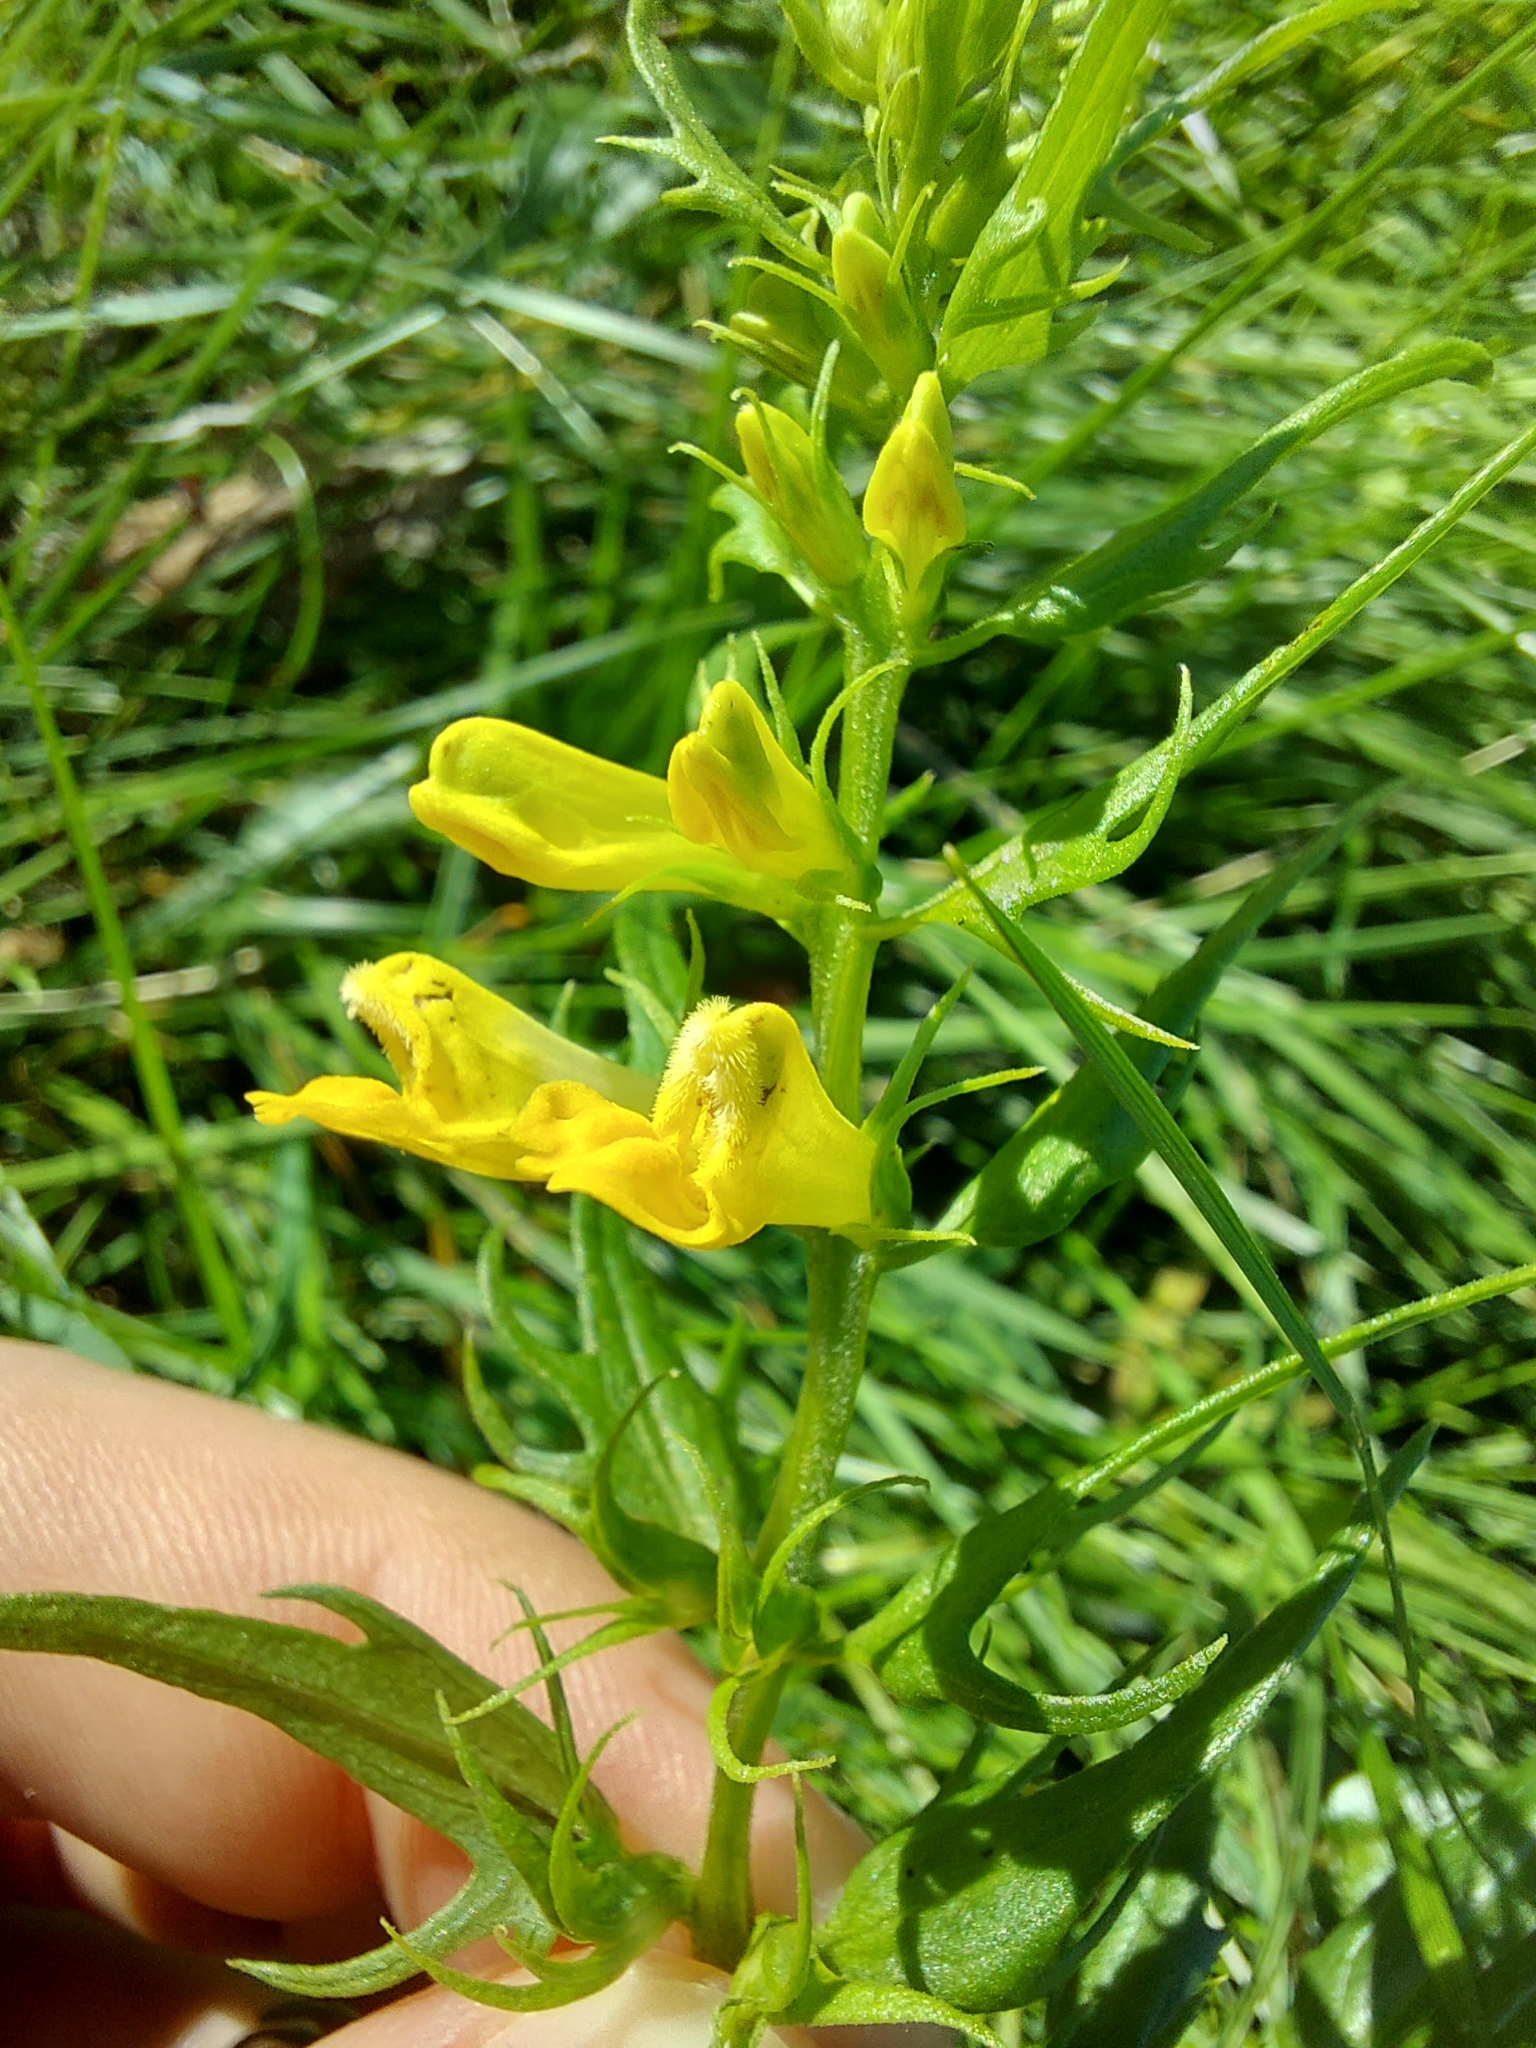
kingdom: Plantae
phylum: Tracheophyta
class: Magnoliopsida
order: Lamiales
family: Orobanchaceae
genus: Melampyrum
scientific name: Melampyrum pratense
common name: Common cow-wheat
